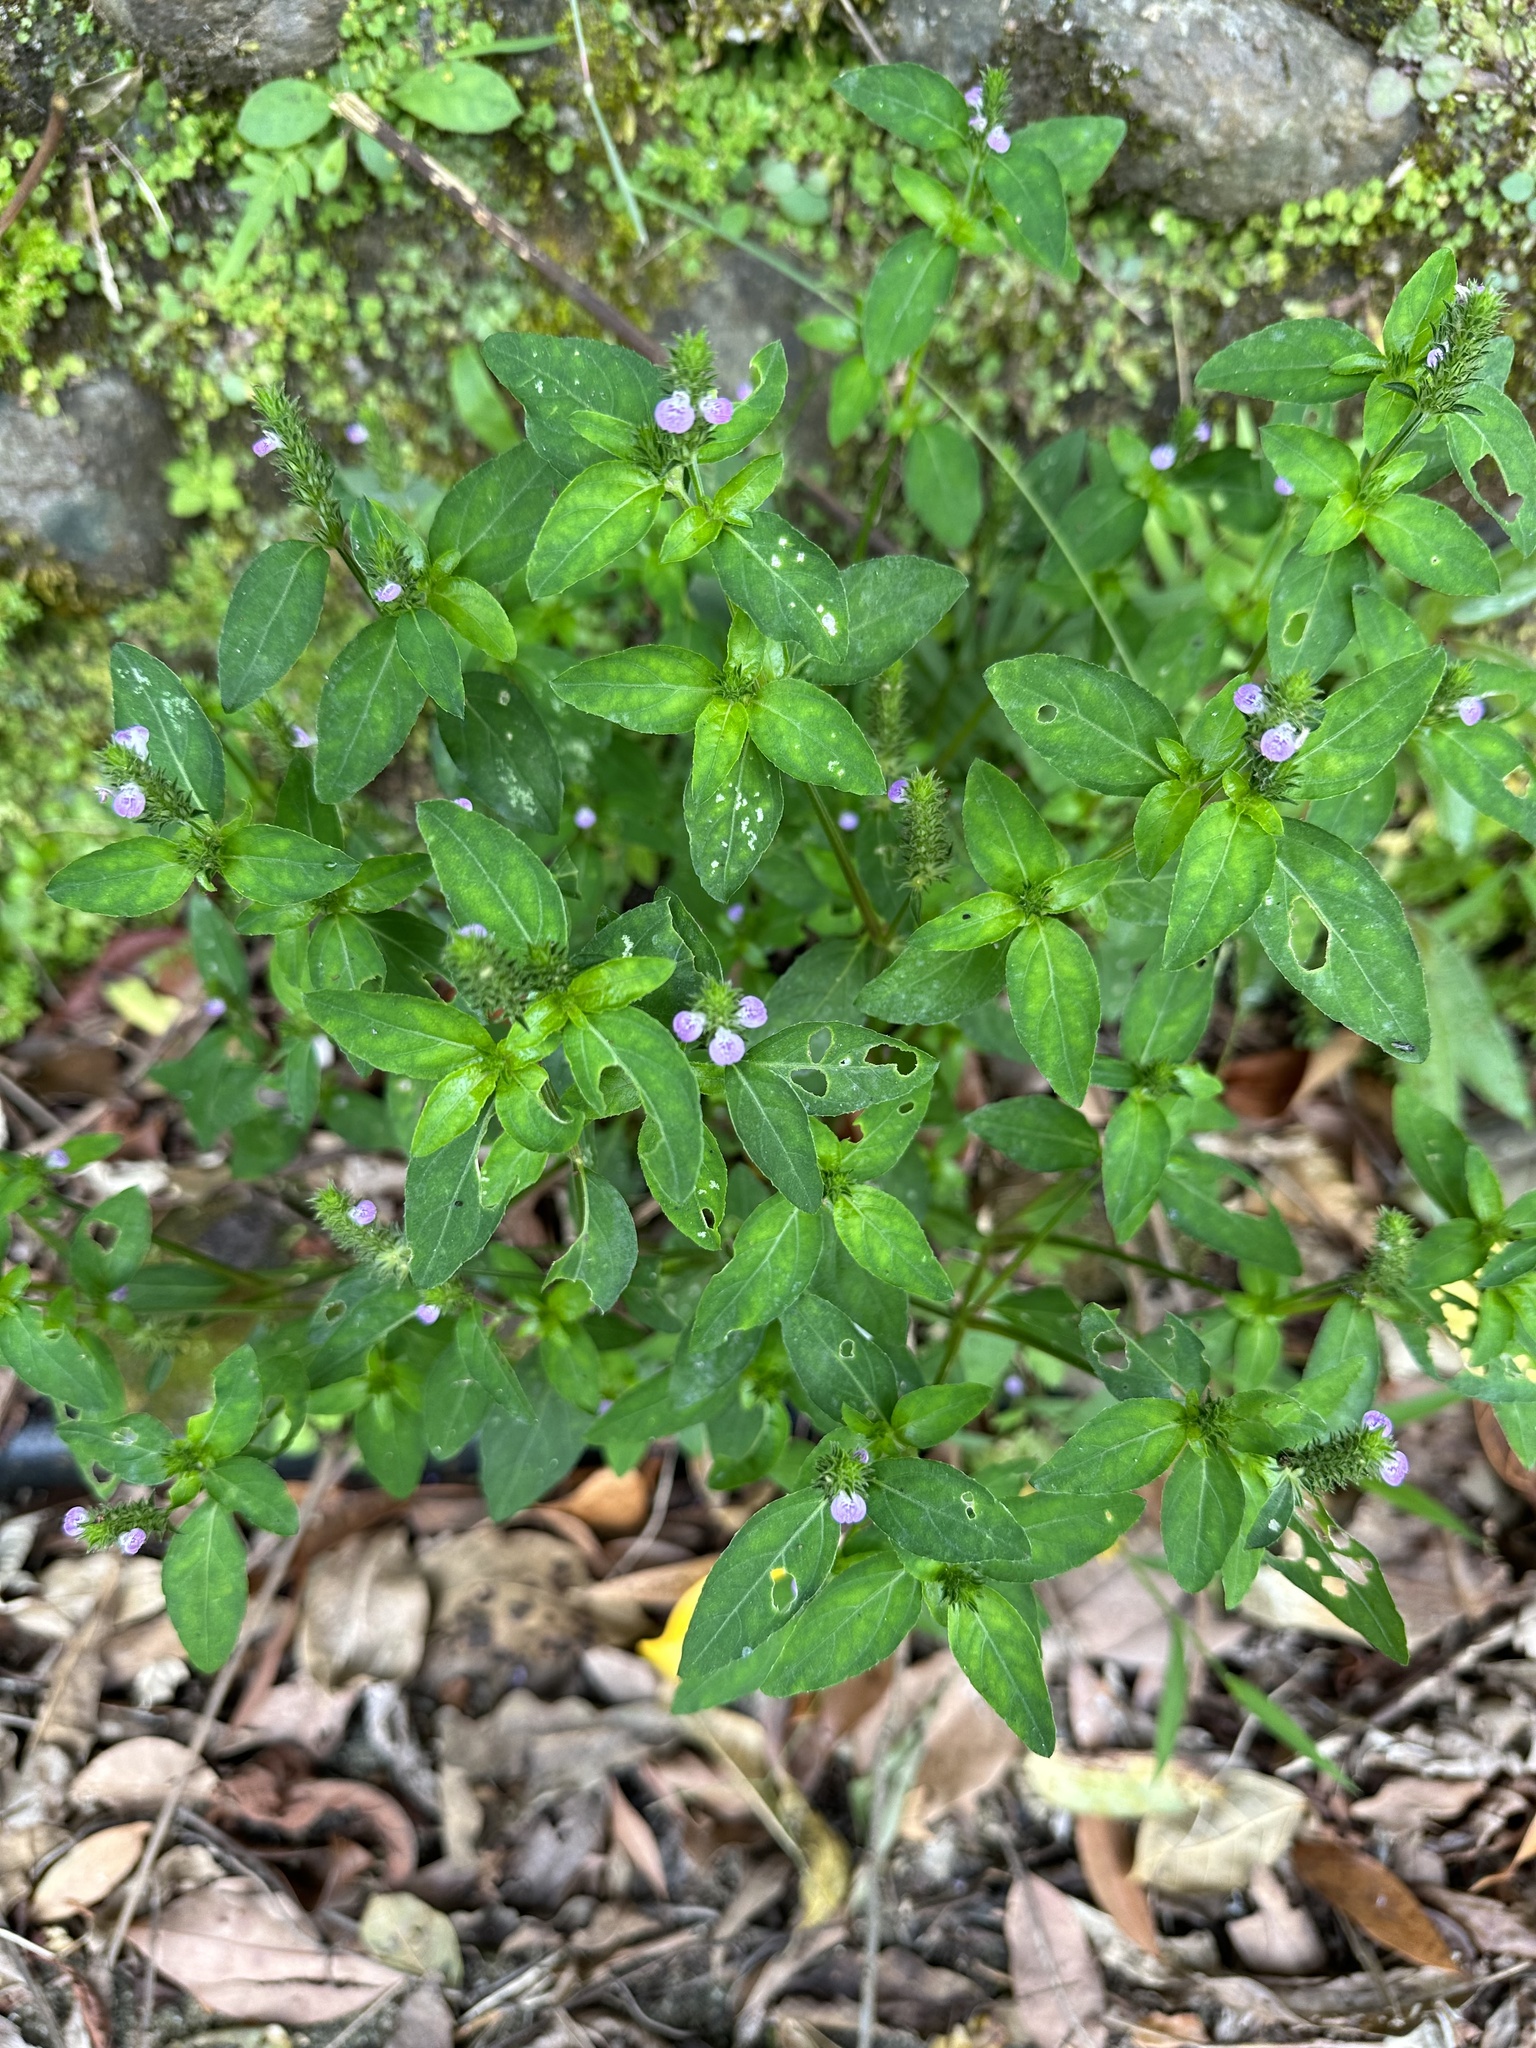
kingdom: Plantae
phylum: Tracheophyta
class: Magnoliopsida
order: Lamiales
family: Acanthaceae
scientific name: Acanthaceae
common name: Acanthaceae
